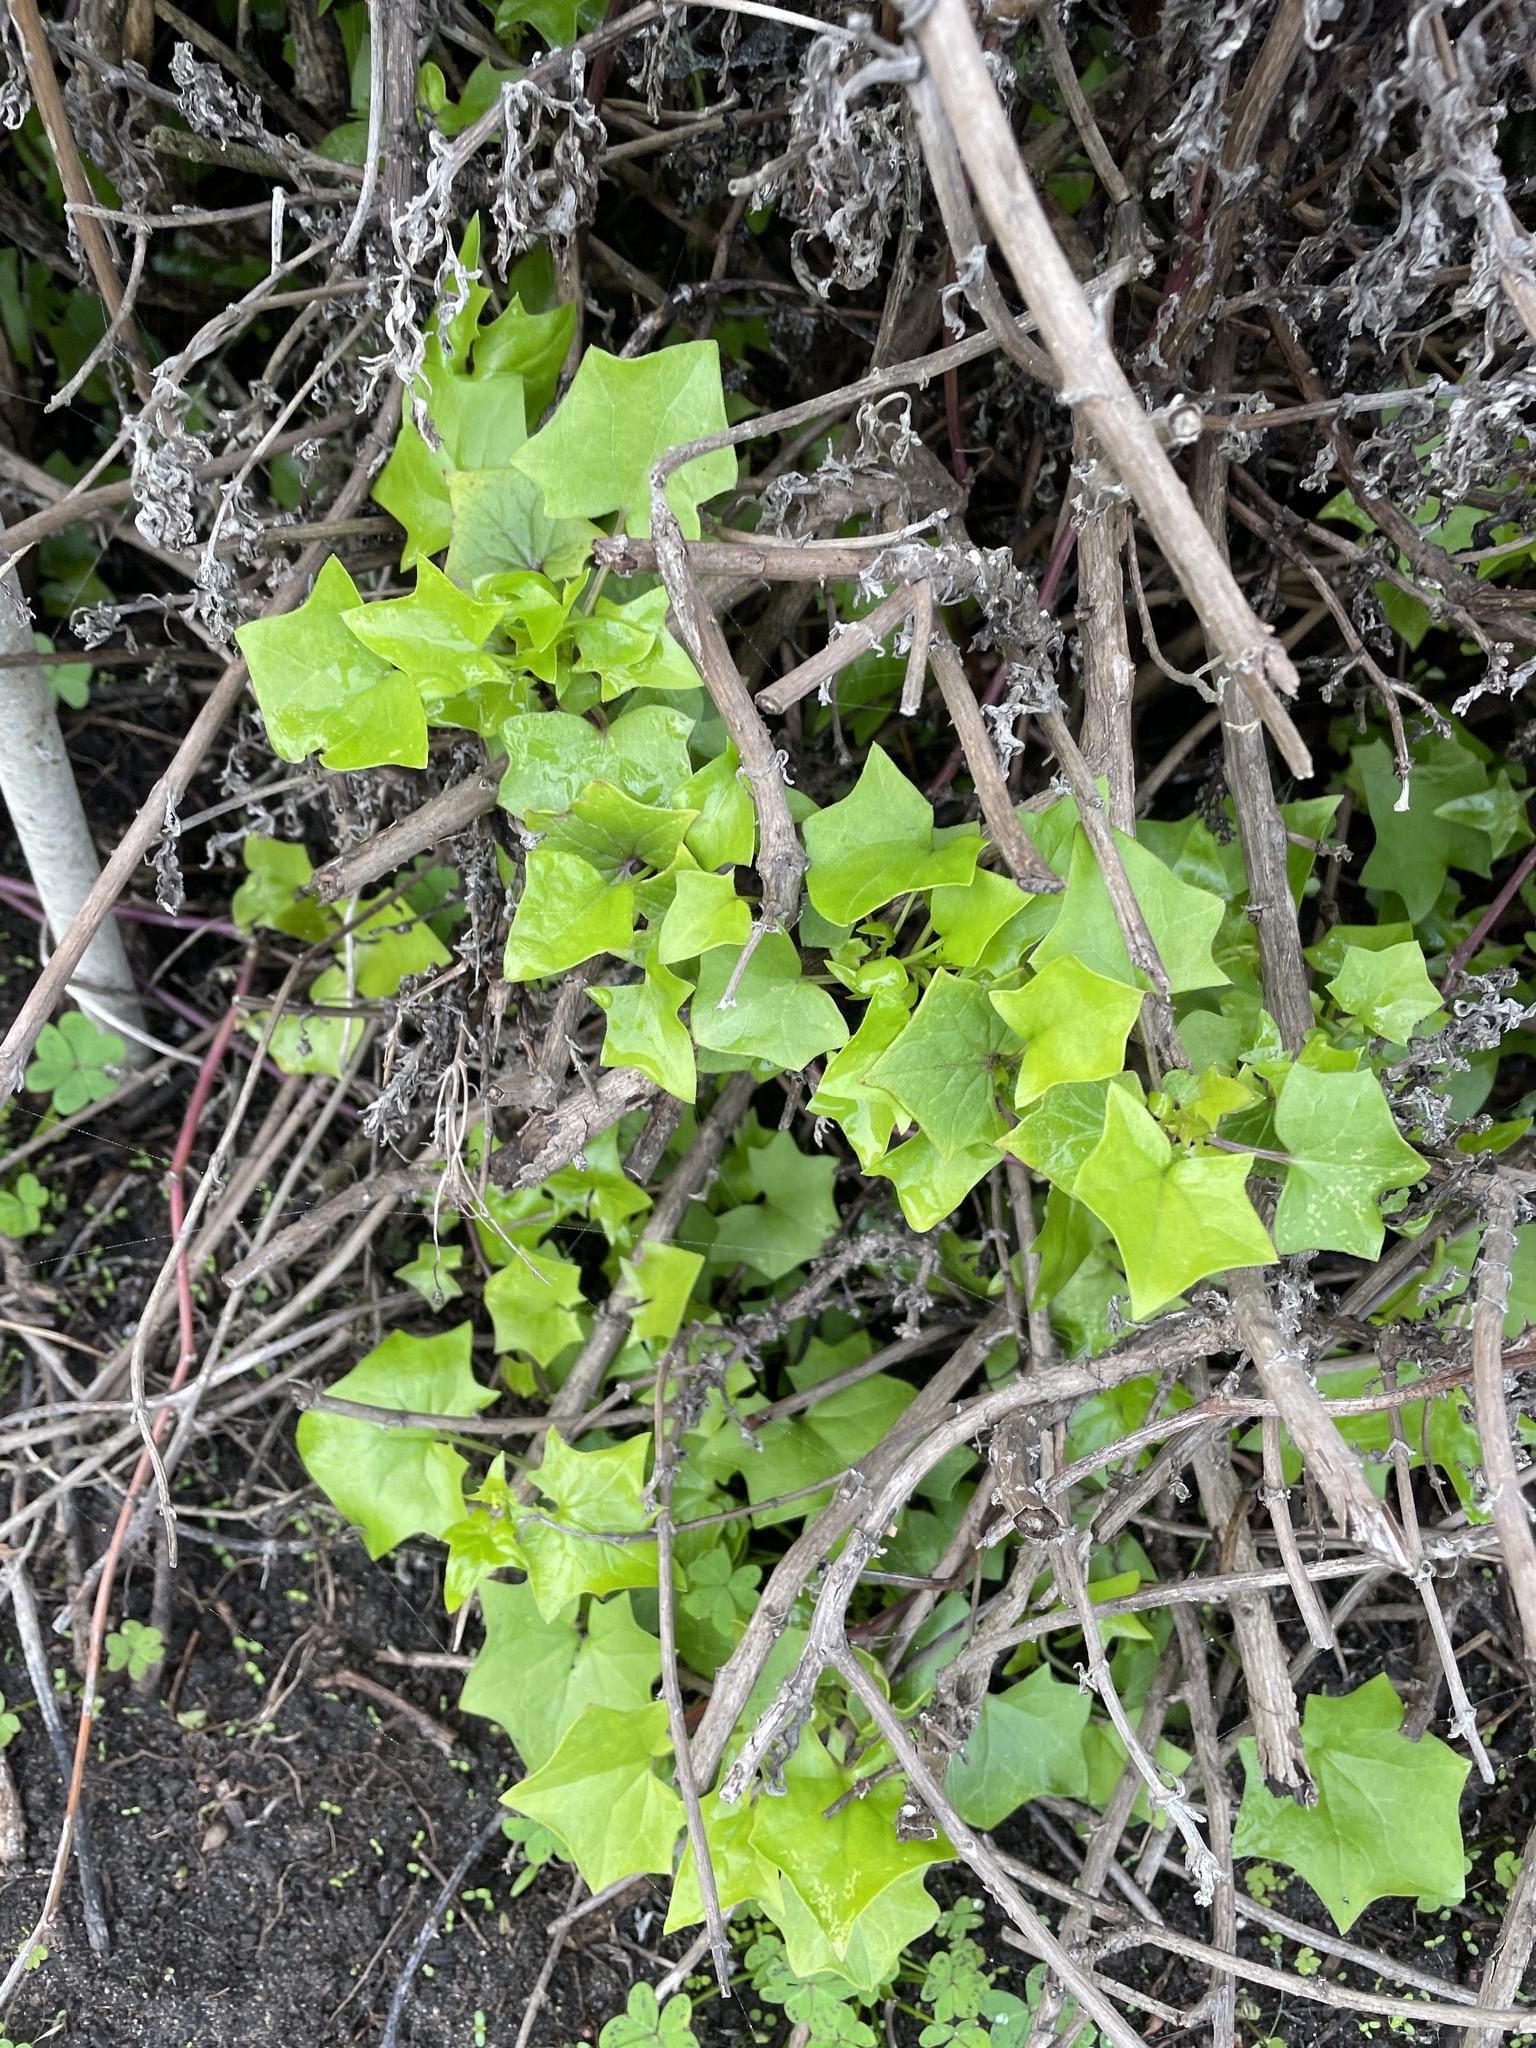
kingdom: Plantae
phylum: Tracheophyta
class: Magnoliopsida
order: Asterales
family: Asteraceae
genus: Delairea
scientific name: Delairea odorata
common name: Cape-ivy
